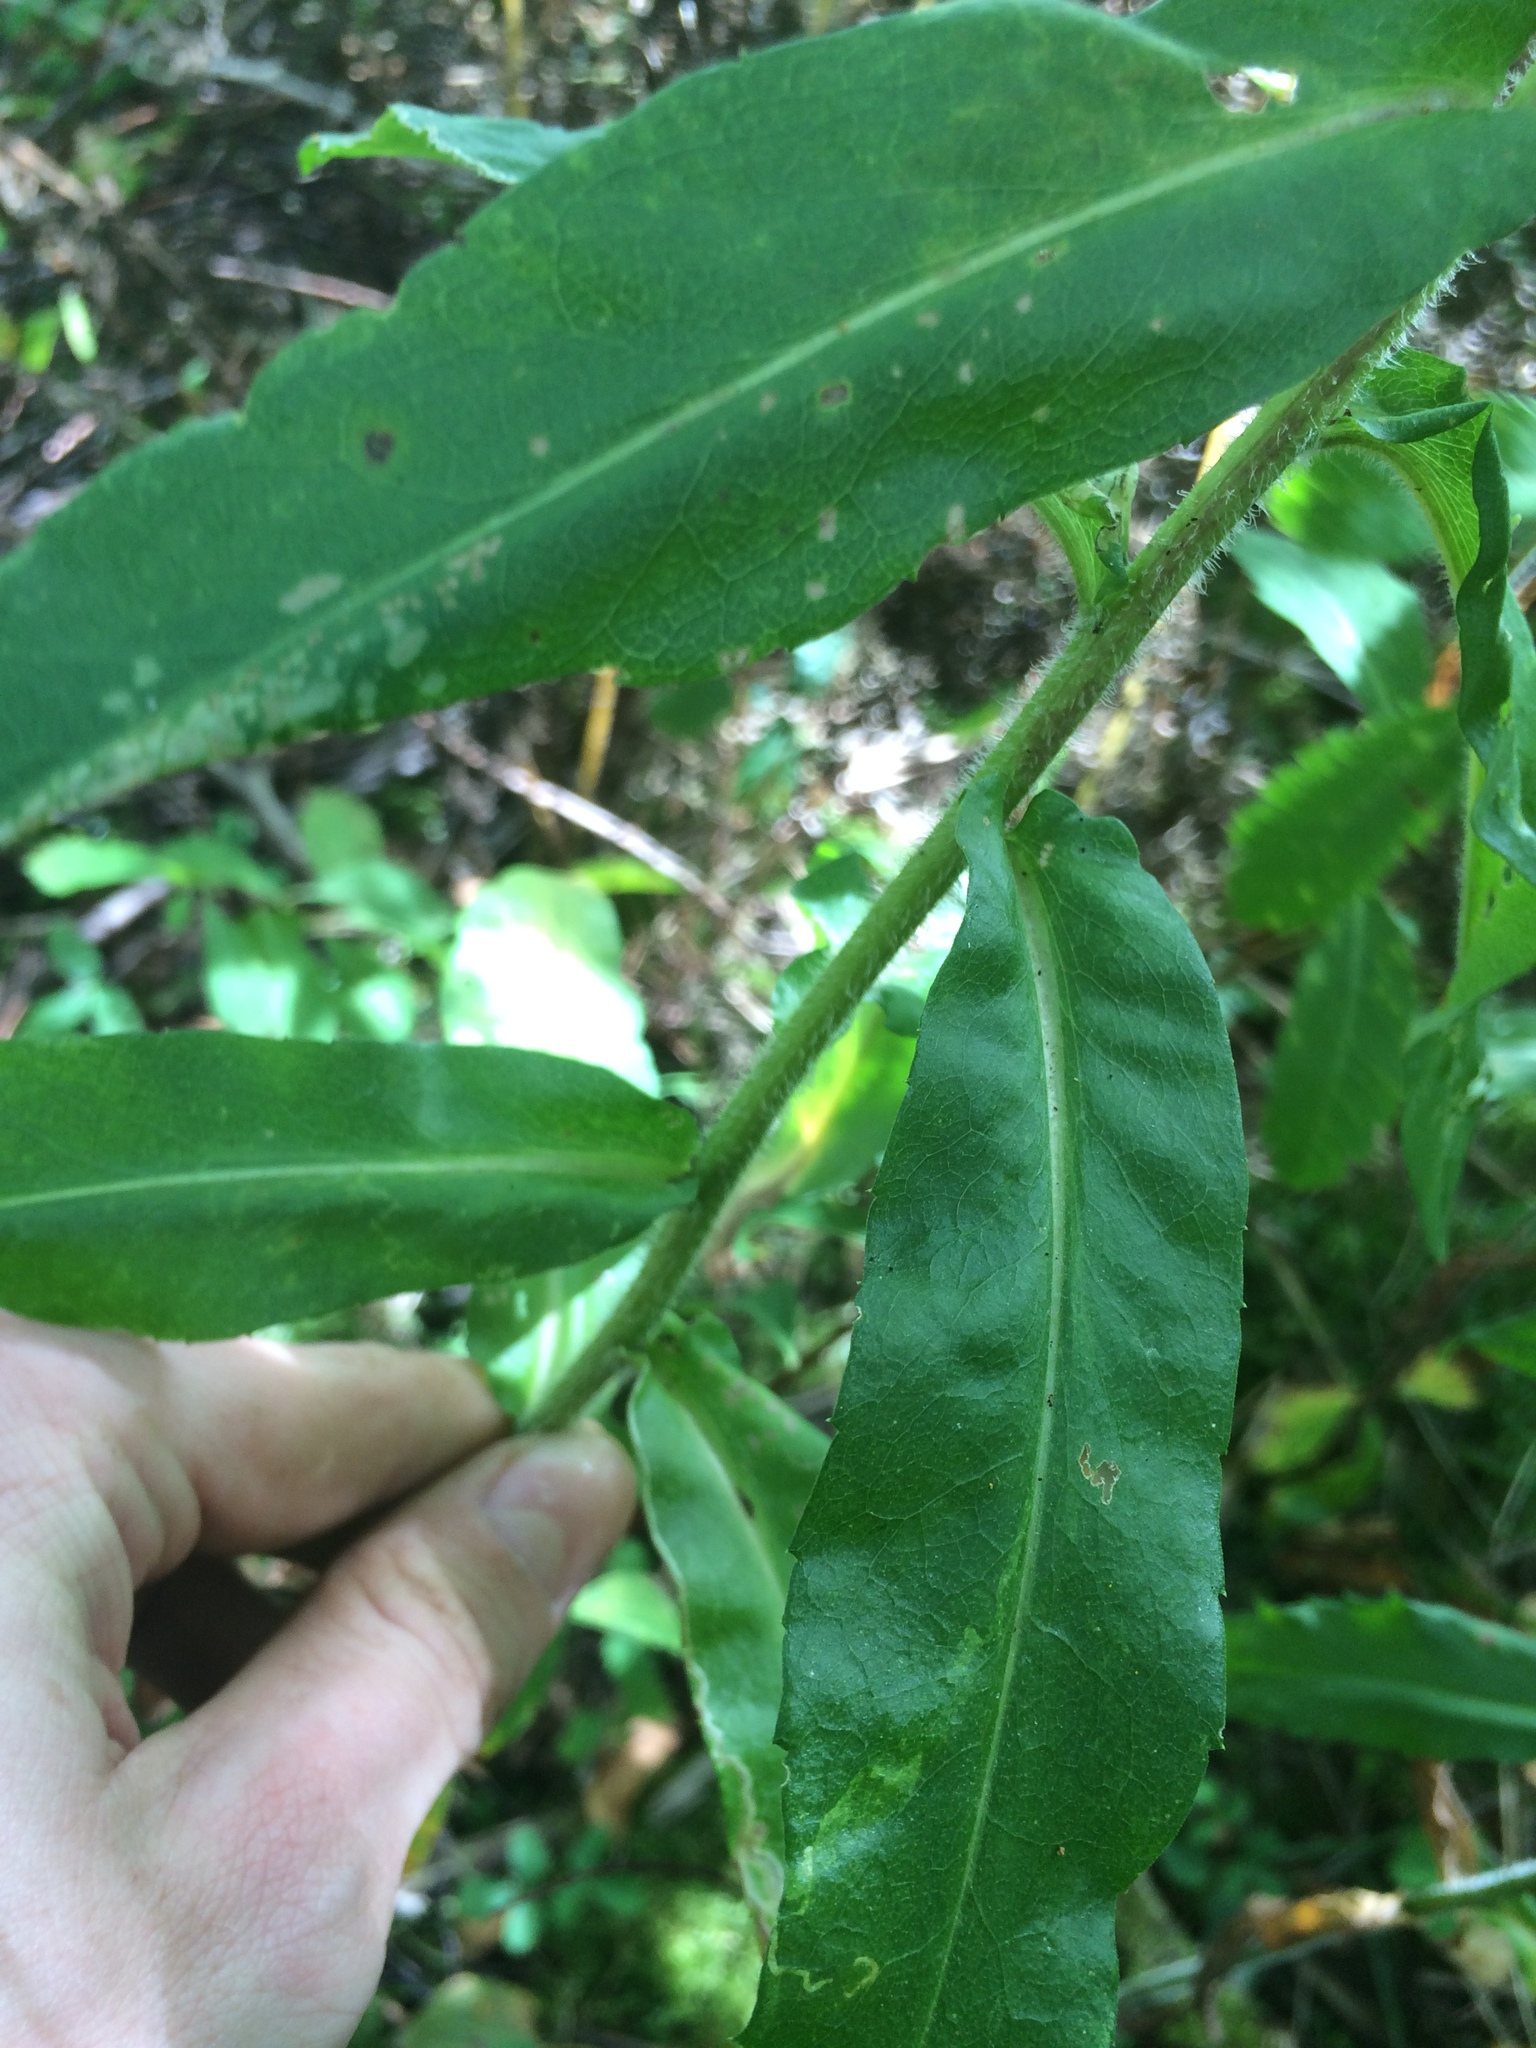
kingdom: Plantae
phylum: Tracheophyta
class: Magnoliopsida
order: Asterales
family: Asteraceae
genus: Symphyotrichum
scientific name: Symphyotrichum puniceum
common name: Bog aster
